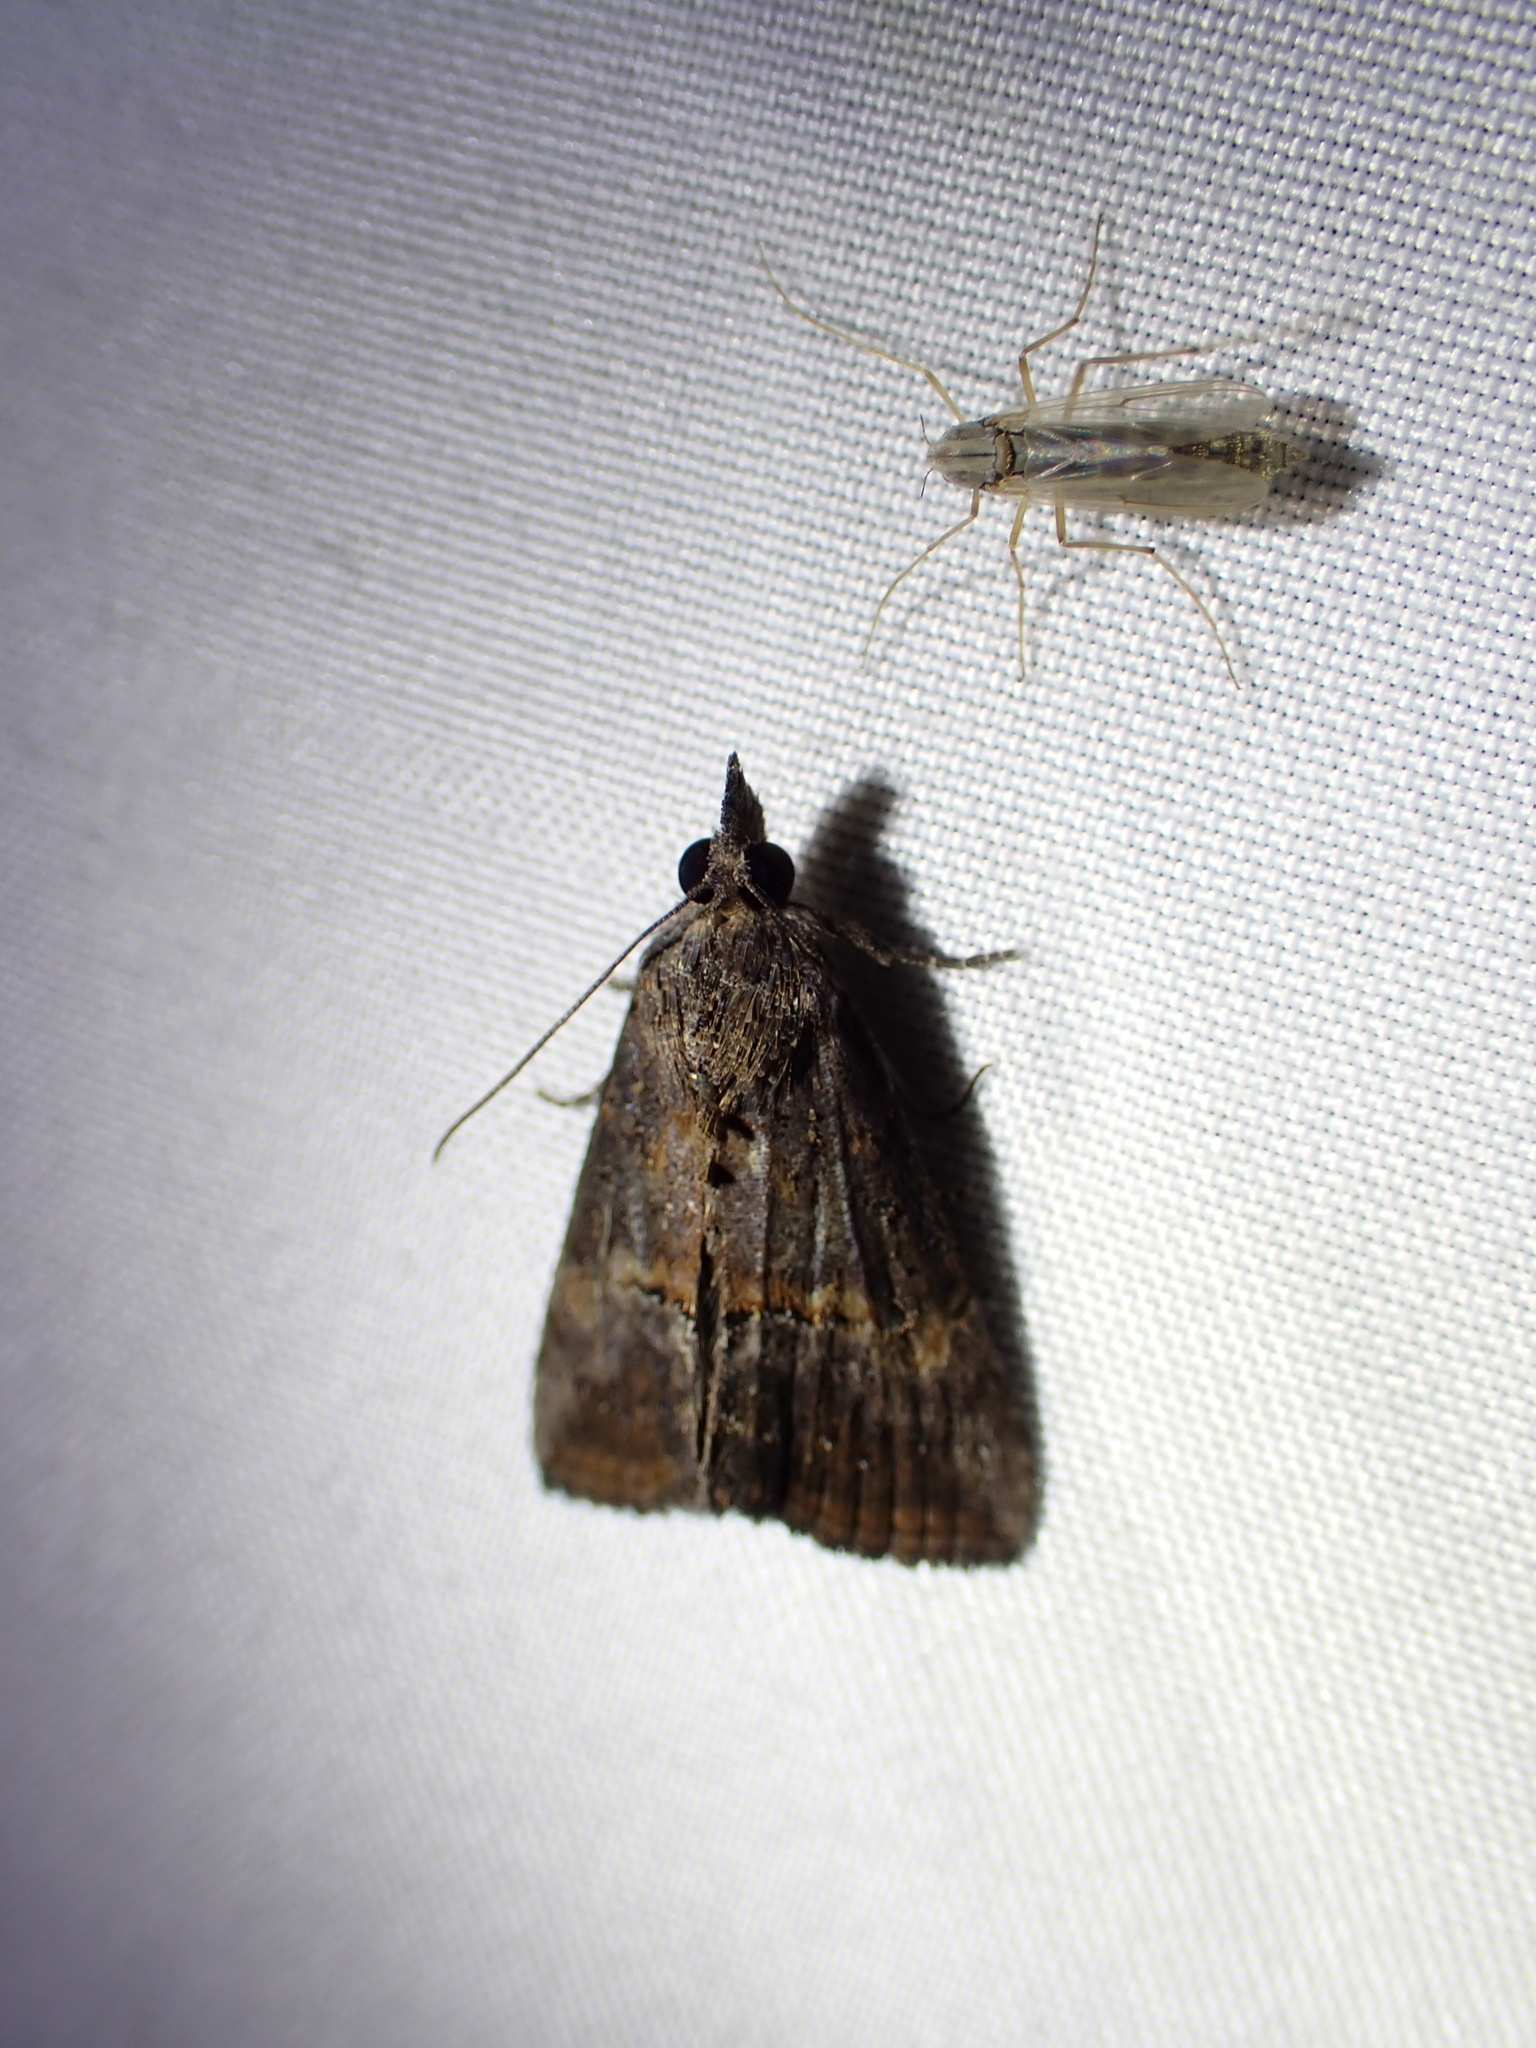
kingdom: Animalia
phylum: Arthropoda
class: Insecta
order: Lepidoptera
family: Erebidae
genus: Hypena
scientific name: Hypena scabra
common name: Green cloverworm
